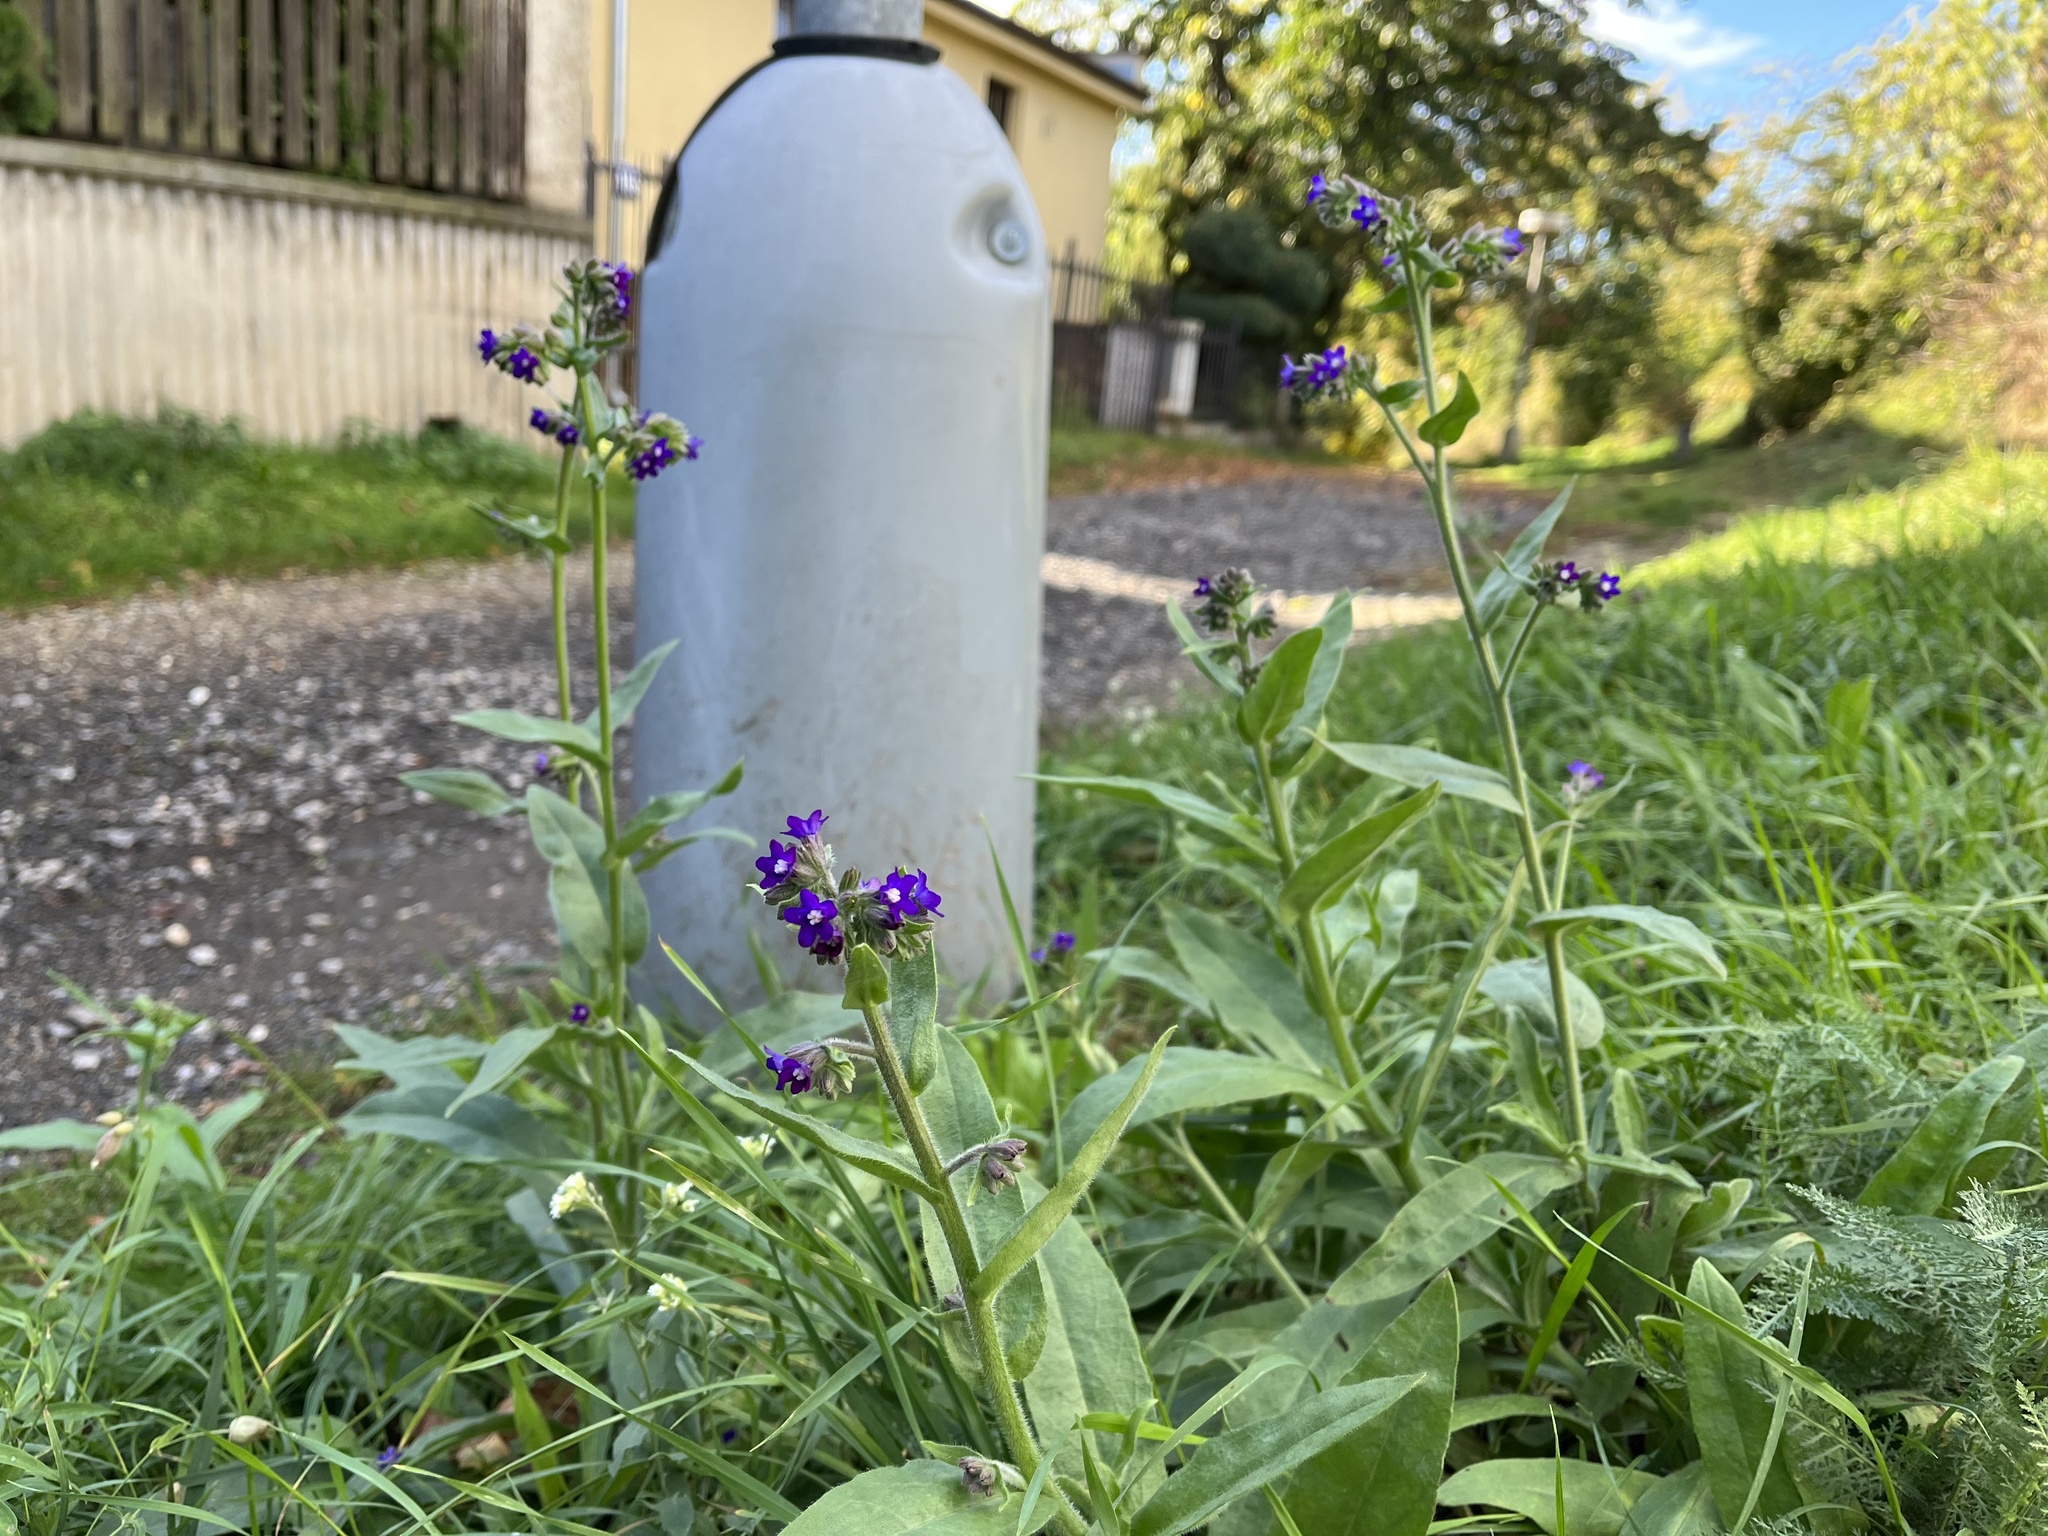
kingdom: Plantae
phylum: Tracheophyta
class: Magnoliopsida
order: Boraginales
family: Boraginaceae
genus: Anchusa
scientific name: Anchusa officinalis
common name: Alkanet
